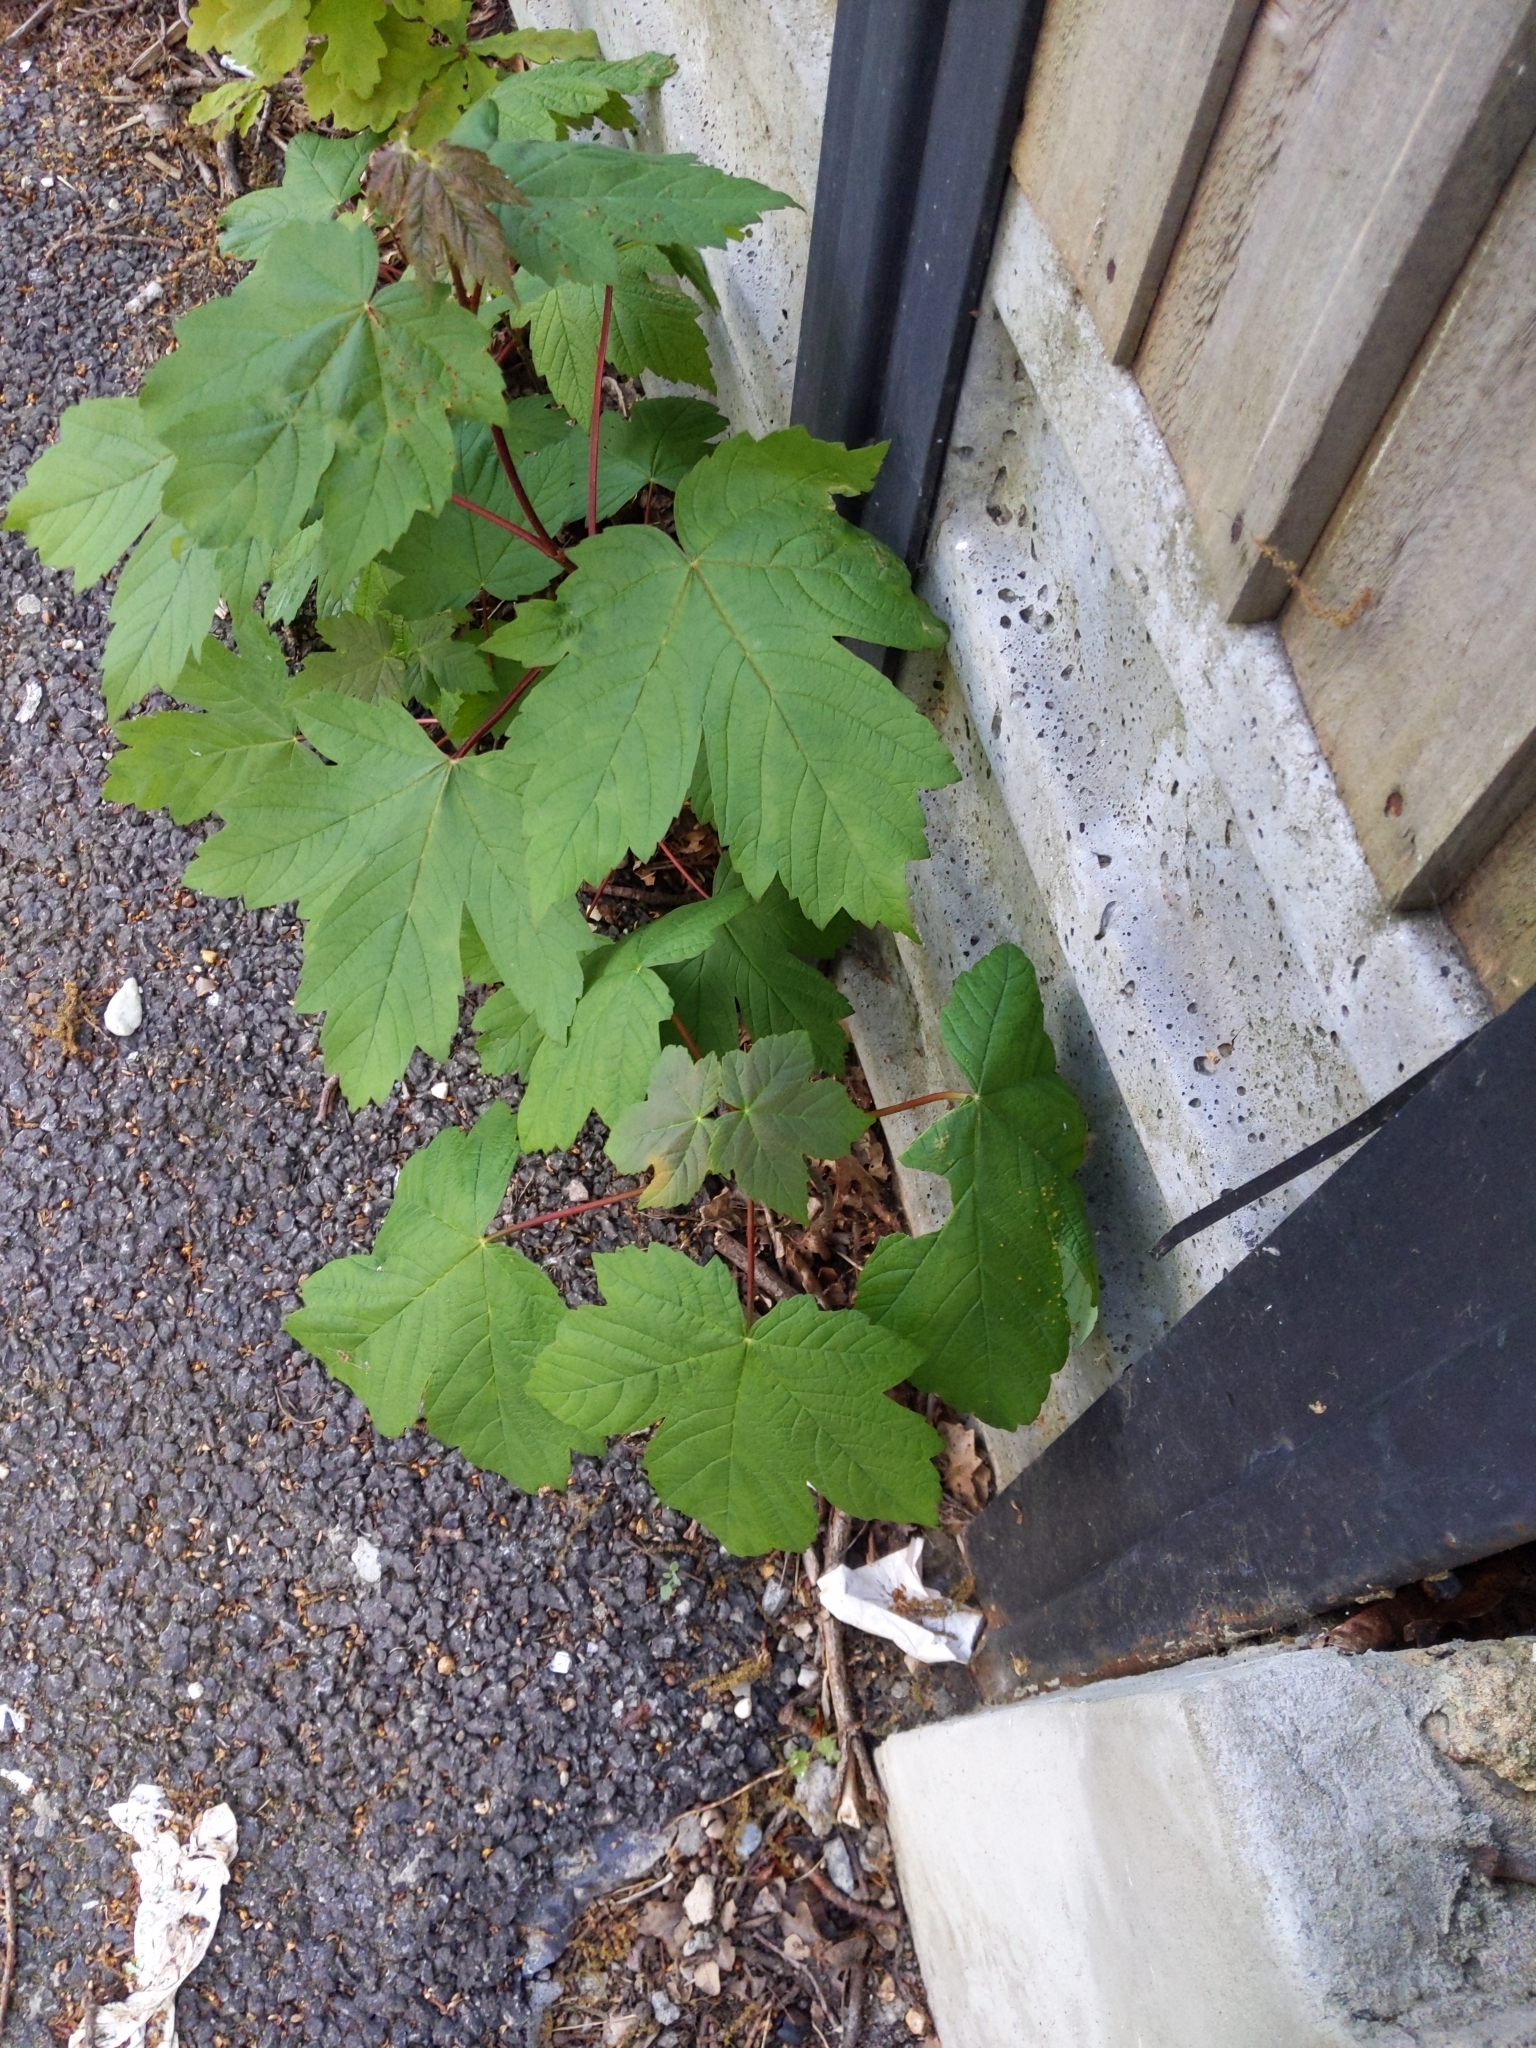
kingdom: Plantae
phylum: Tracheophyta
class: Magnoliopsida
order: Sapindales
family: Sapindaceae
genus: Acer
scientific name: Acer pseudoplatanus
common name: Sycamore
